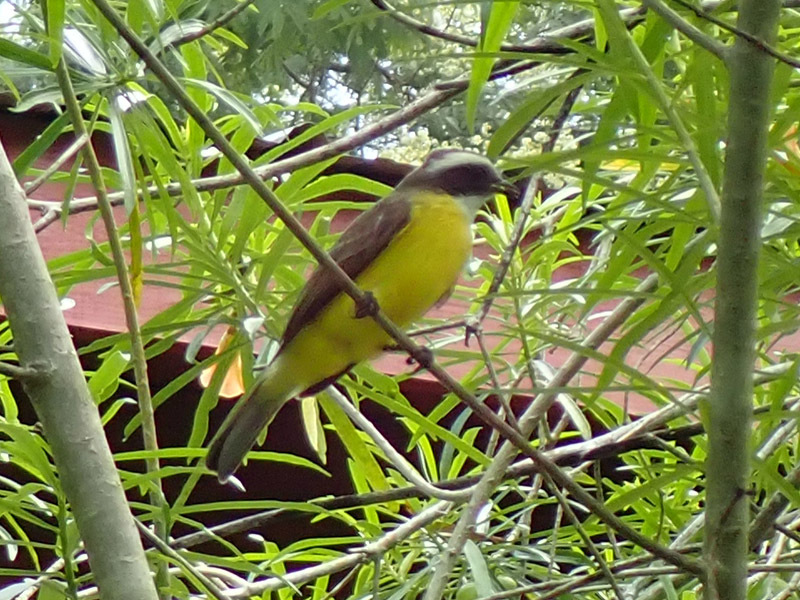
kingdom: Animalia
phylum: Chordata
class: Aves
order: Passeriformes
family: Tyrannidae
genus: Myiozetetes
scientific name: Myiozetetes similis
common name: Social flycatcher
